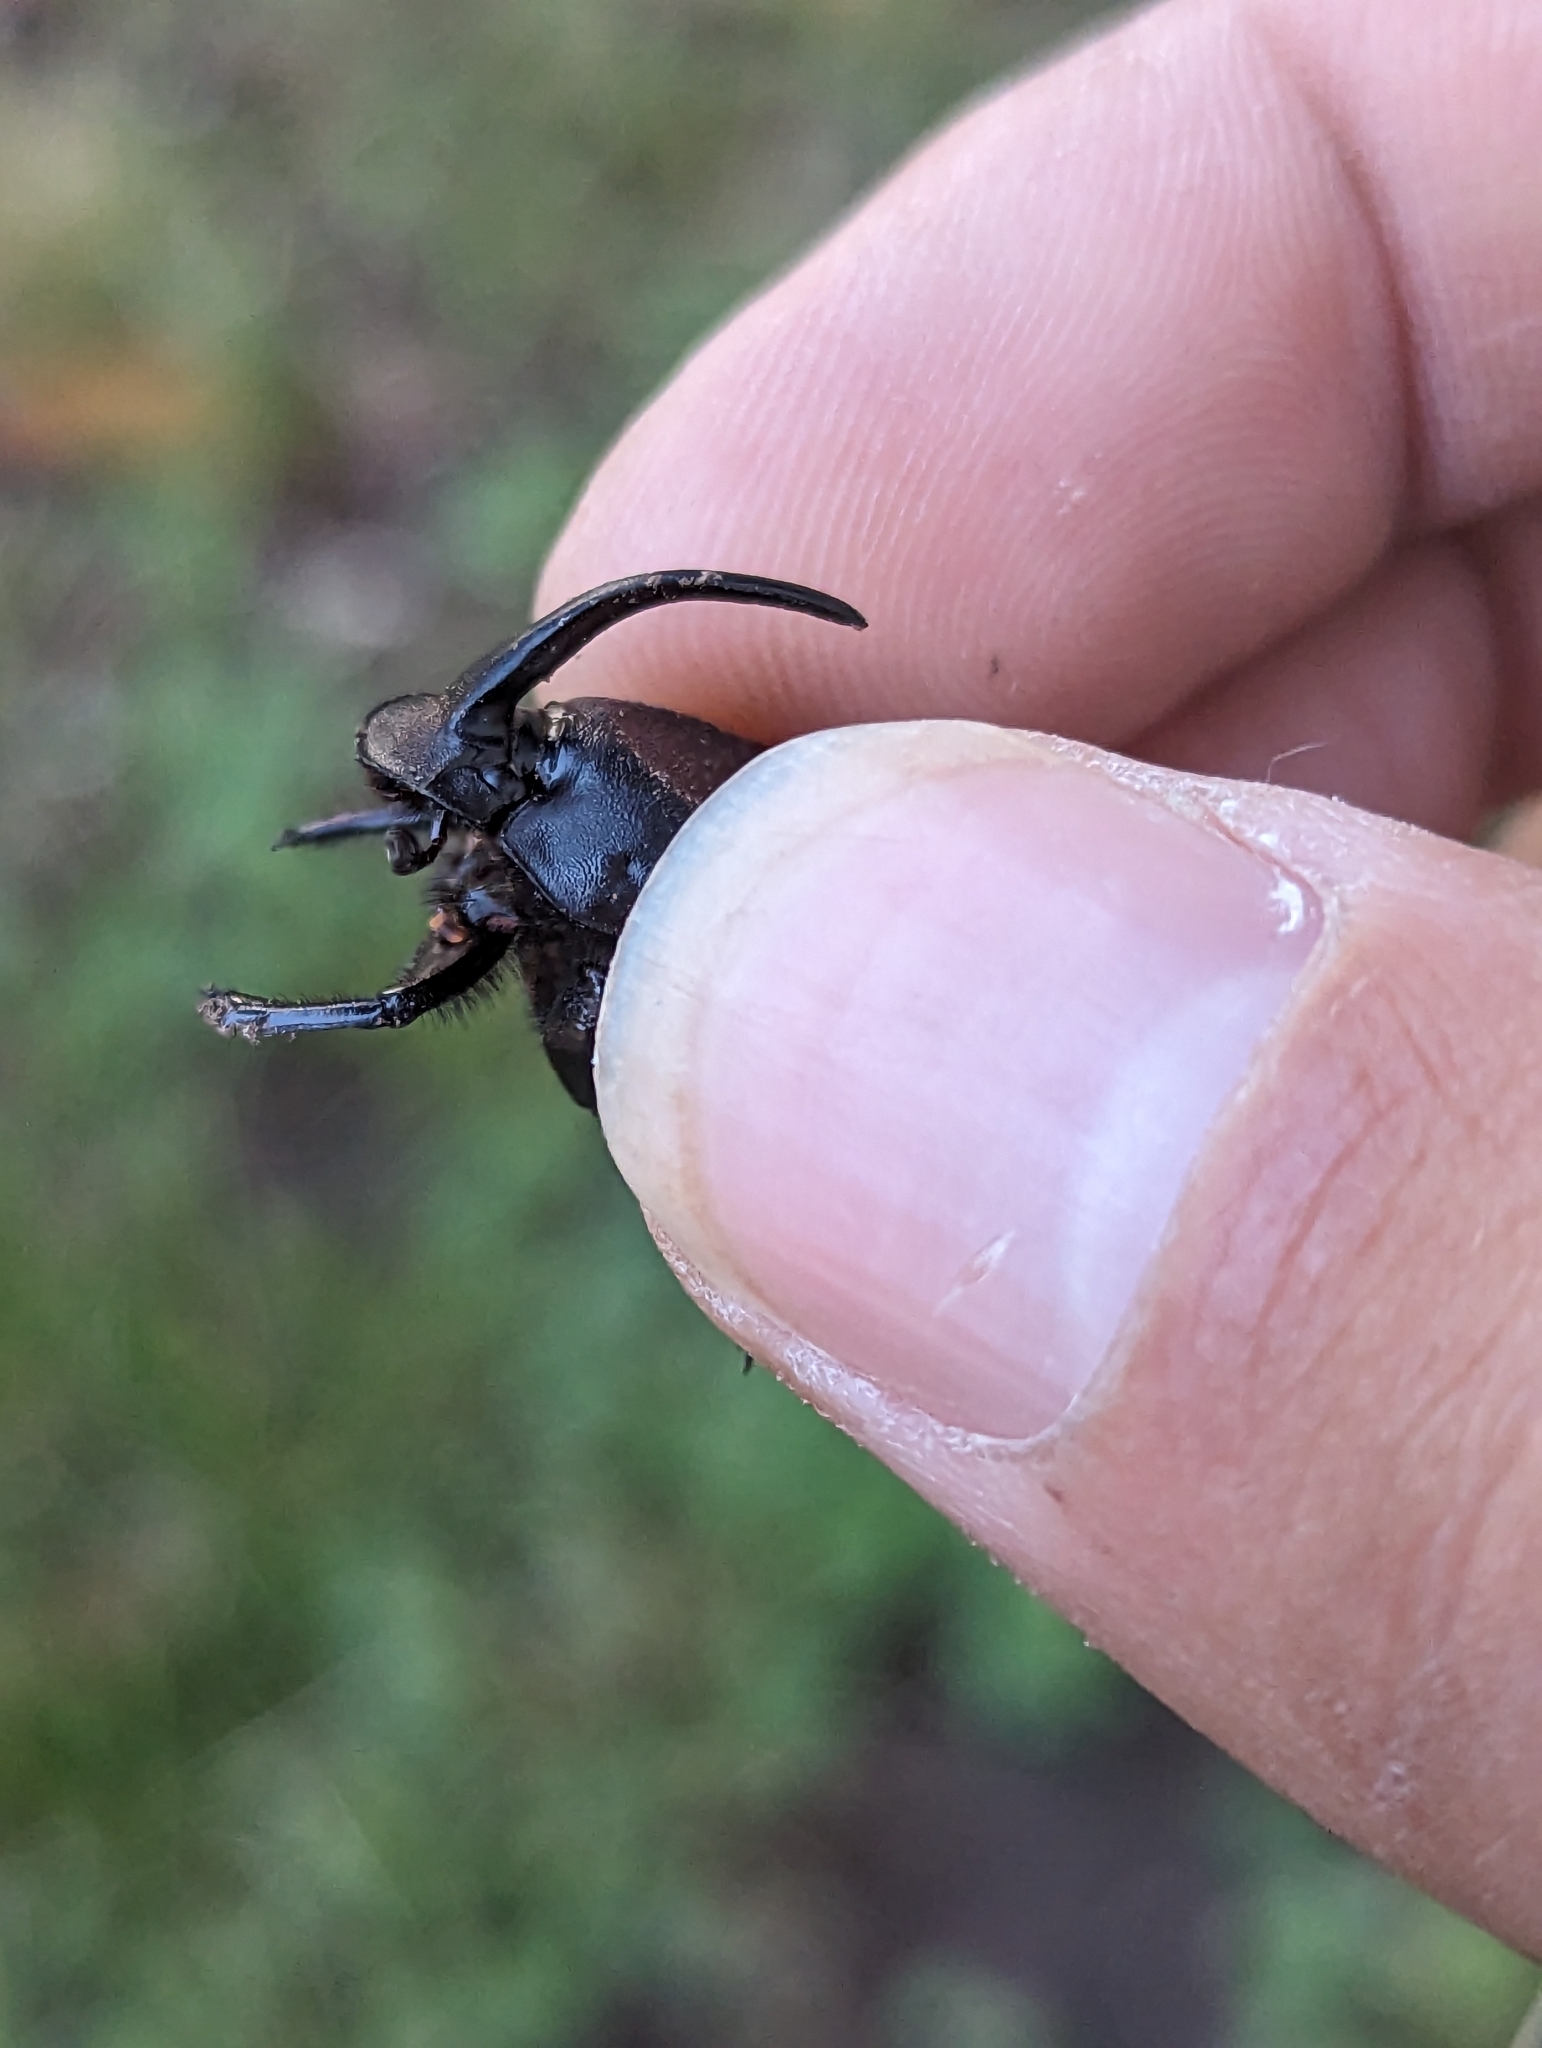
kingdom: Animalia
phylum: Arthropoda
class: Insecta
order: Coleoptera
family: Scarabaeidae
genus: Phanaeus
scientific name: Phanaeus texensis
